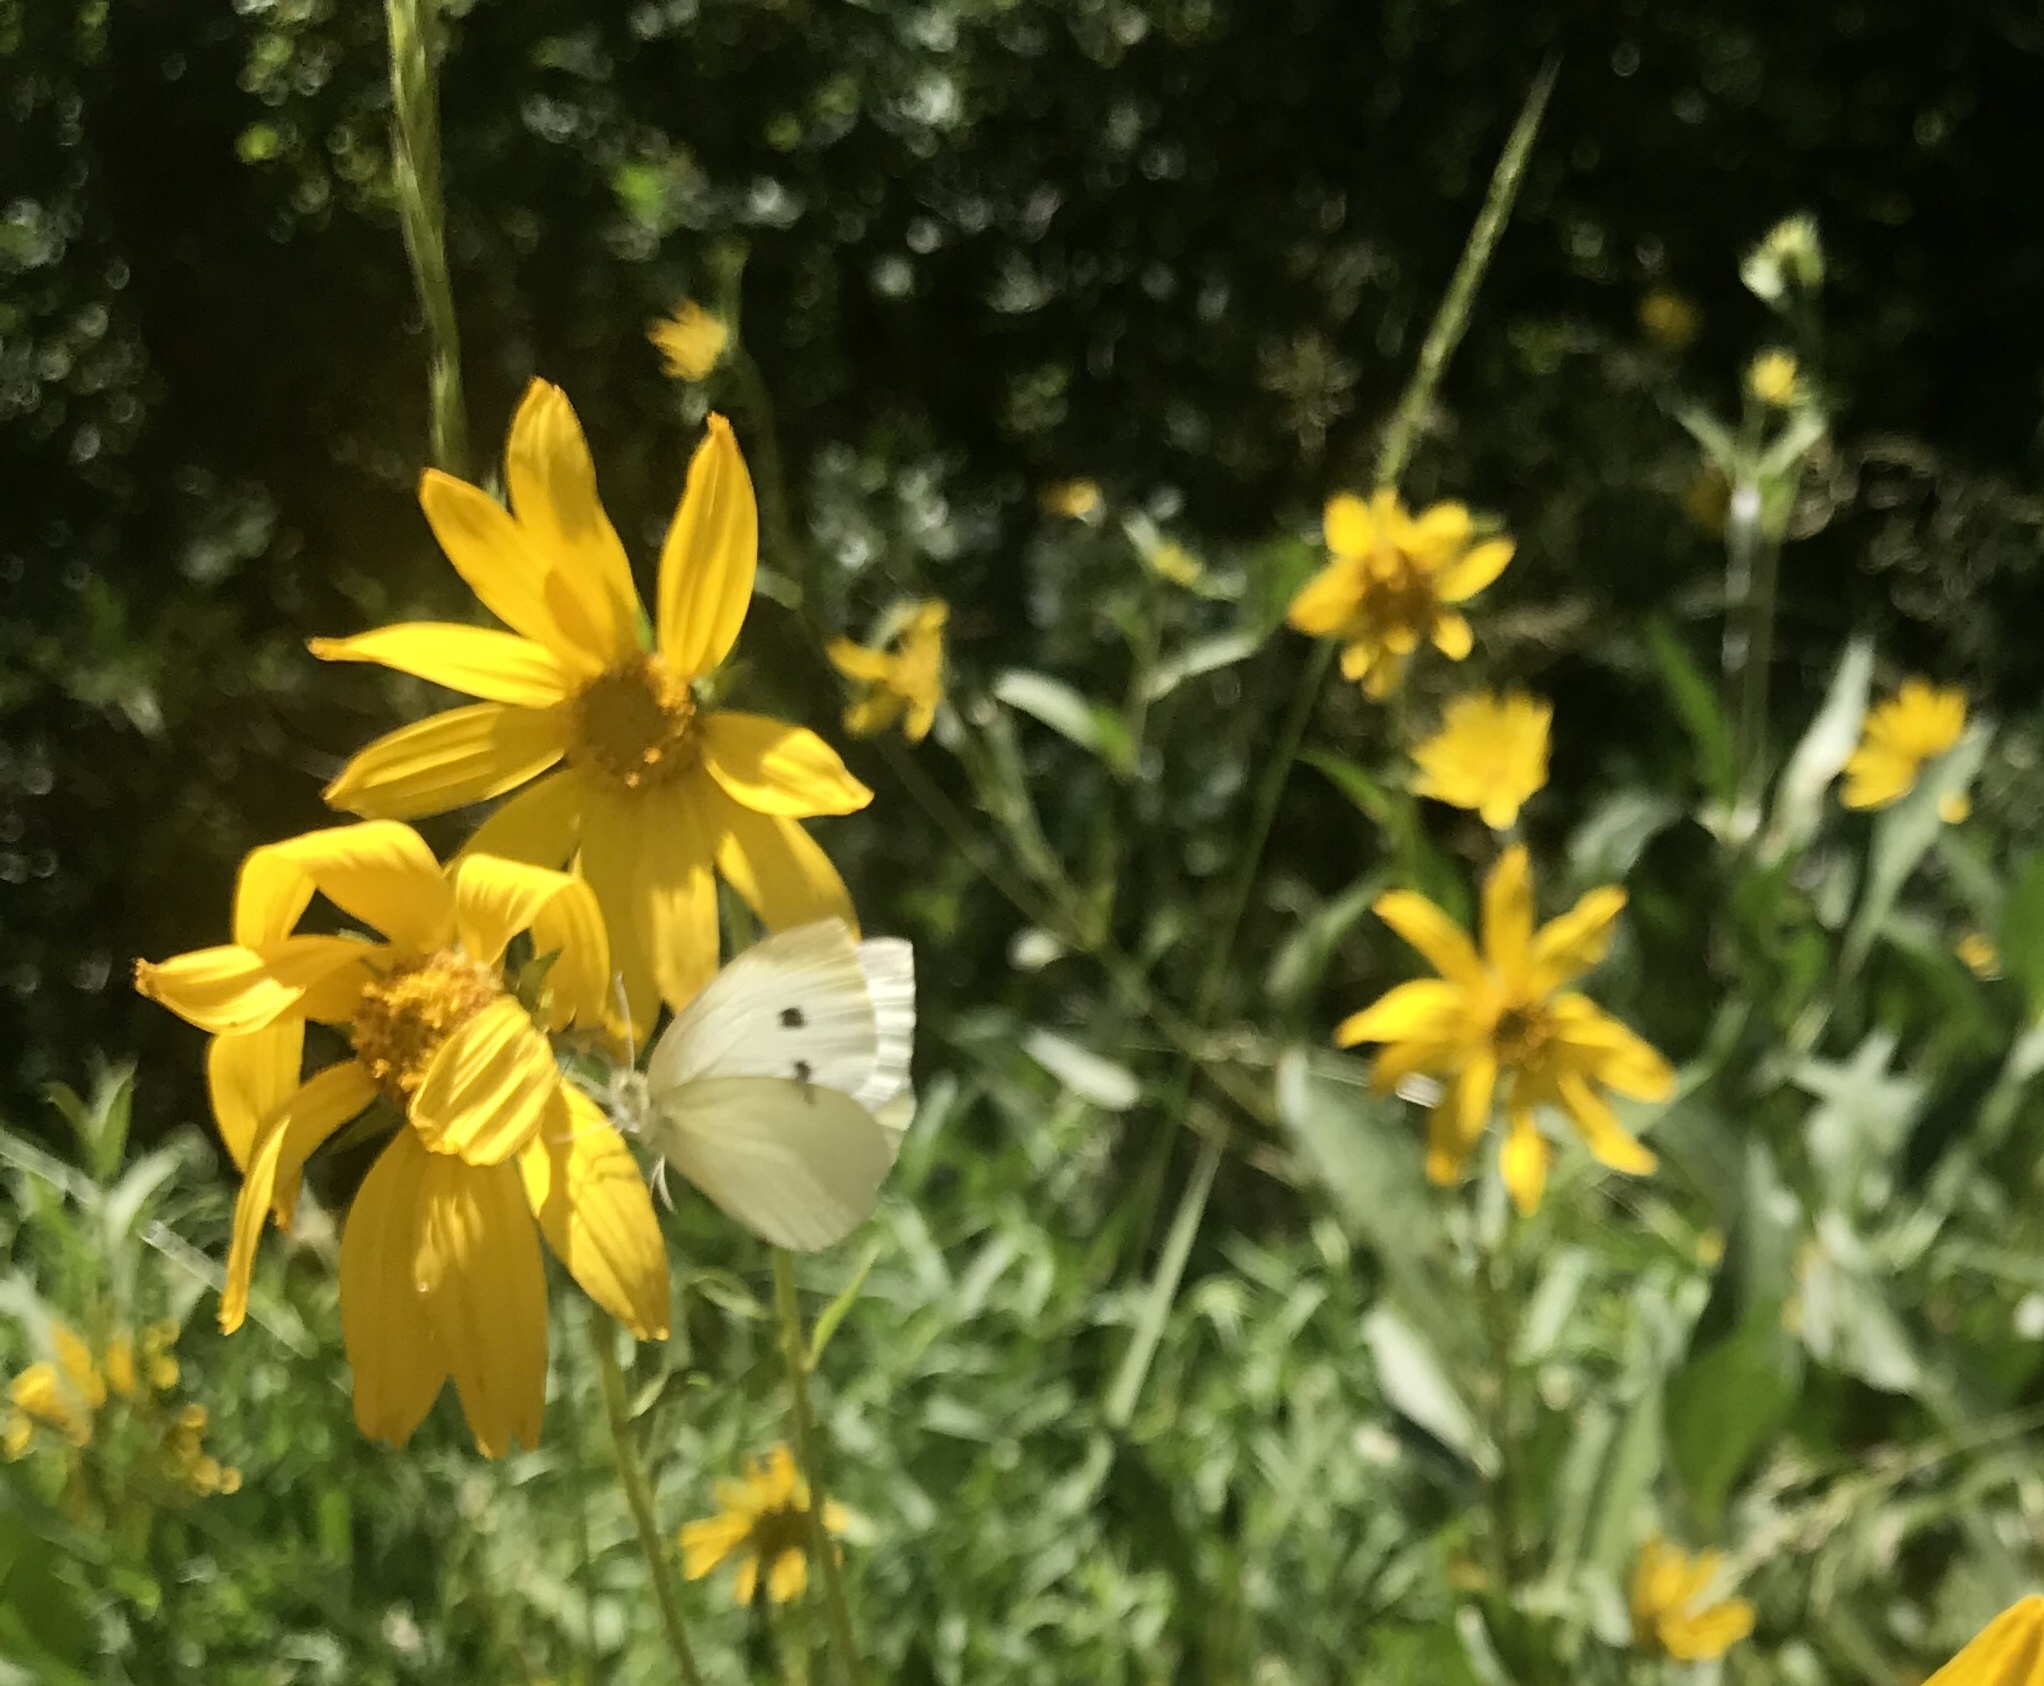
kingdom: Animalia
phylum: Arthropoda
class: Insecta
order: Lepidoptera
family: Pieridae
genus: Pieris
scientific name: Pieris rapae
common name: Small white
